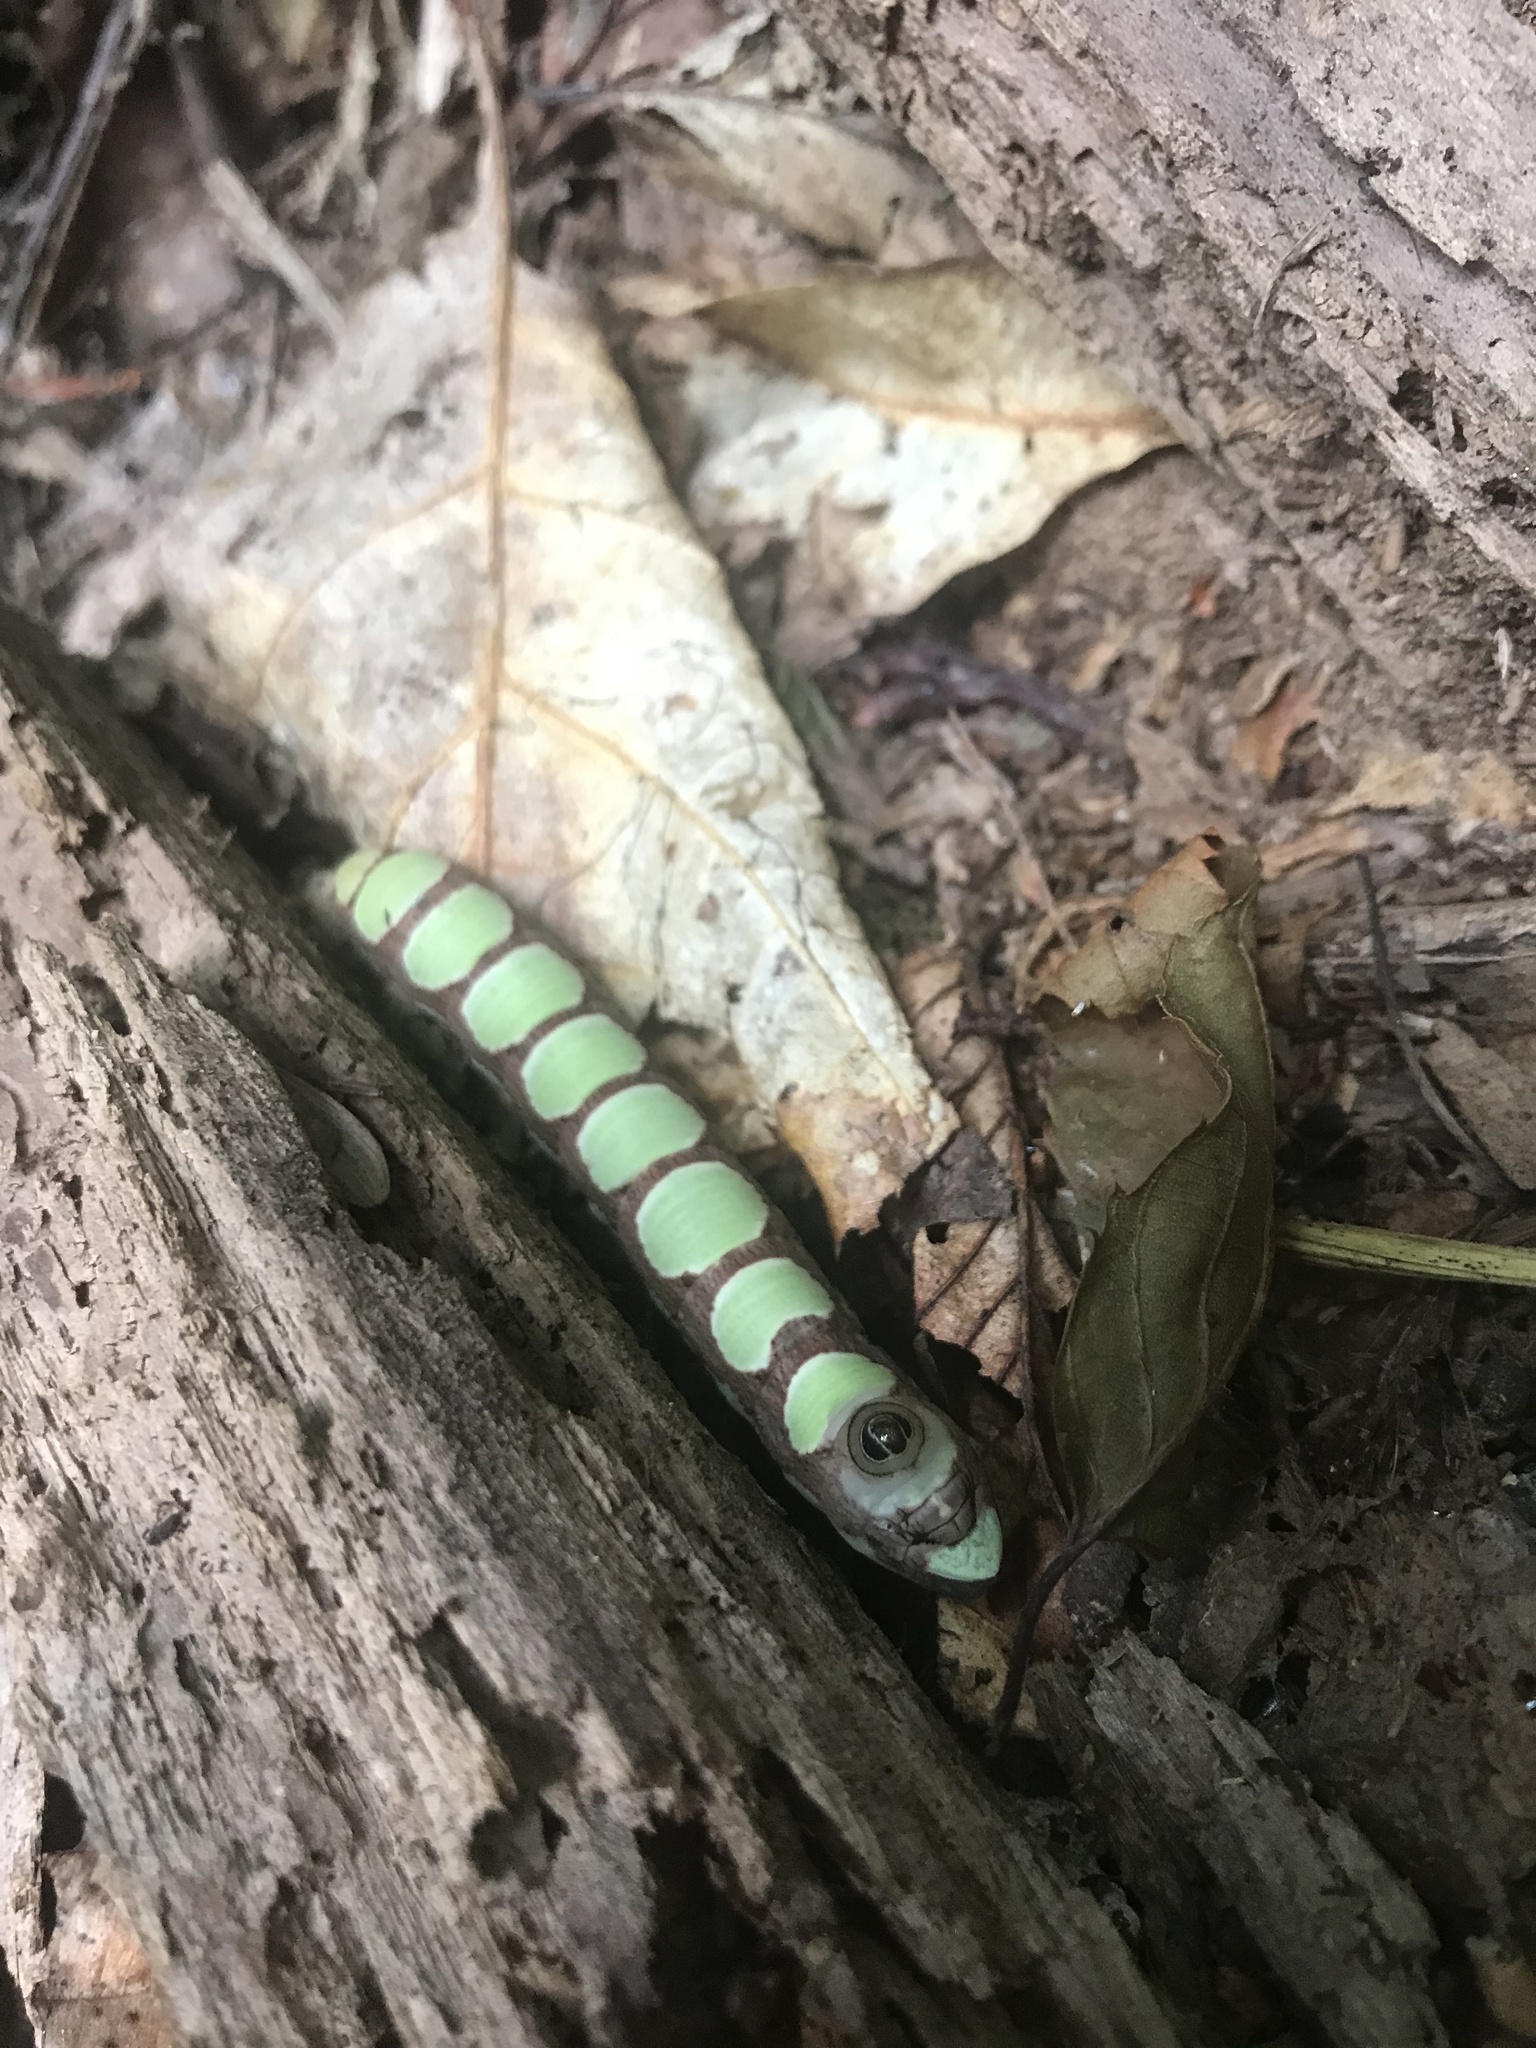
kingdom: Animalia
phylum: Arthropoda
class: Insecta
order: Lepidoptera
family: Sphingidae
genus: Sphecodina
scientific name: Sphecodina abbottii
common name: Abbott's sphinx
